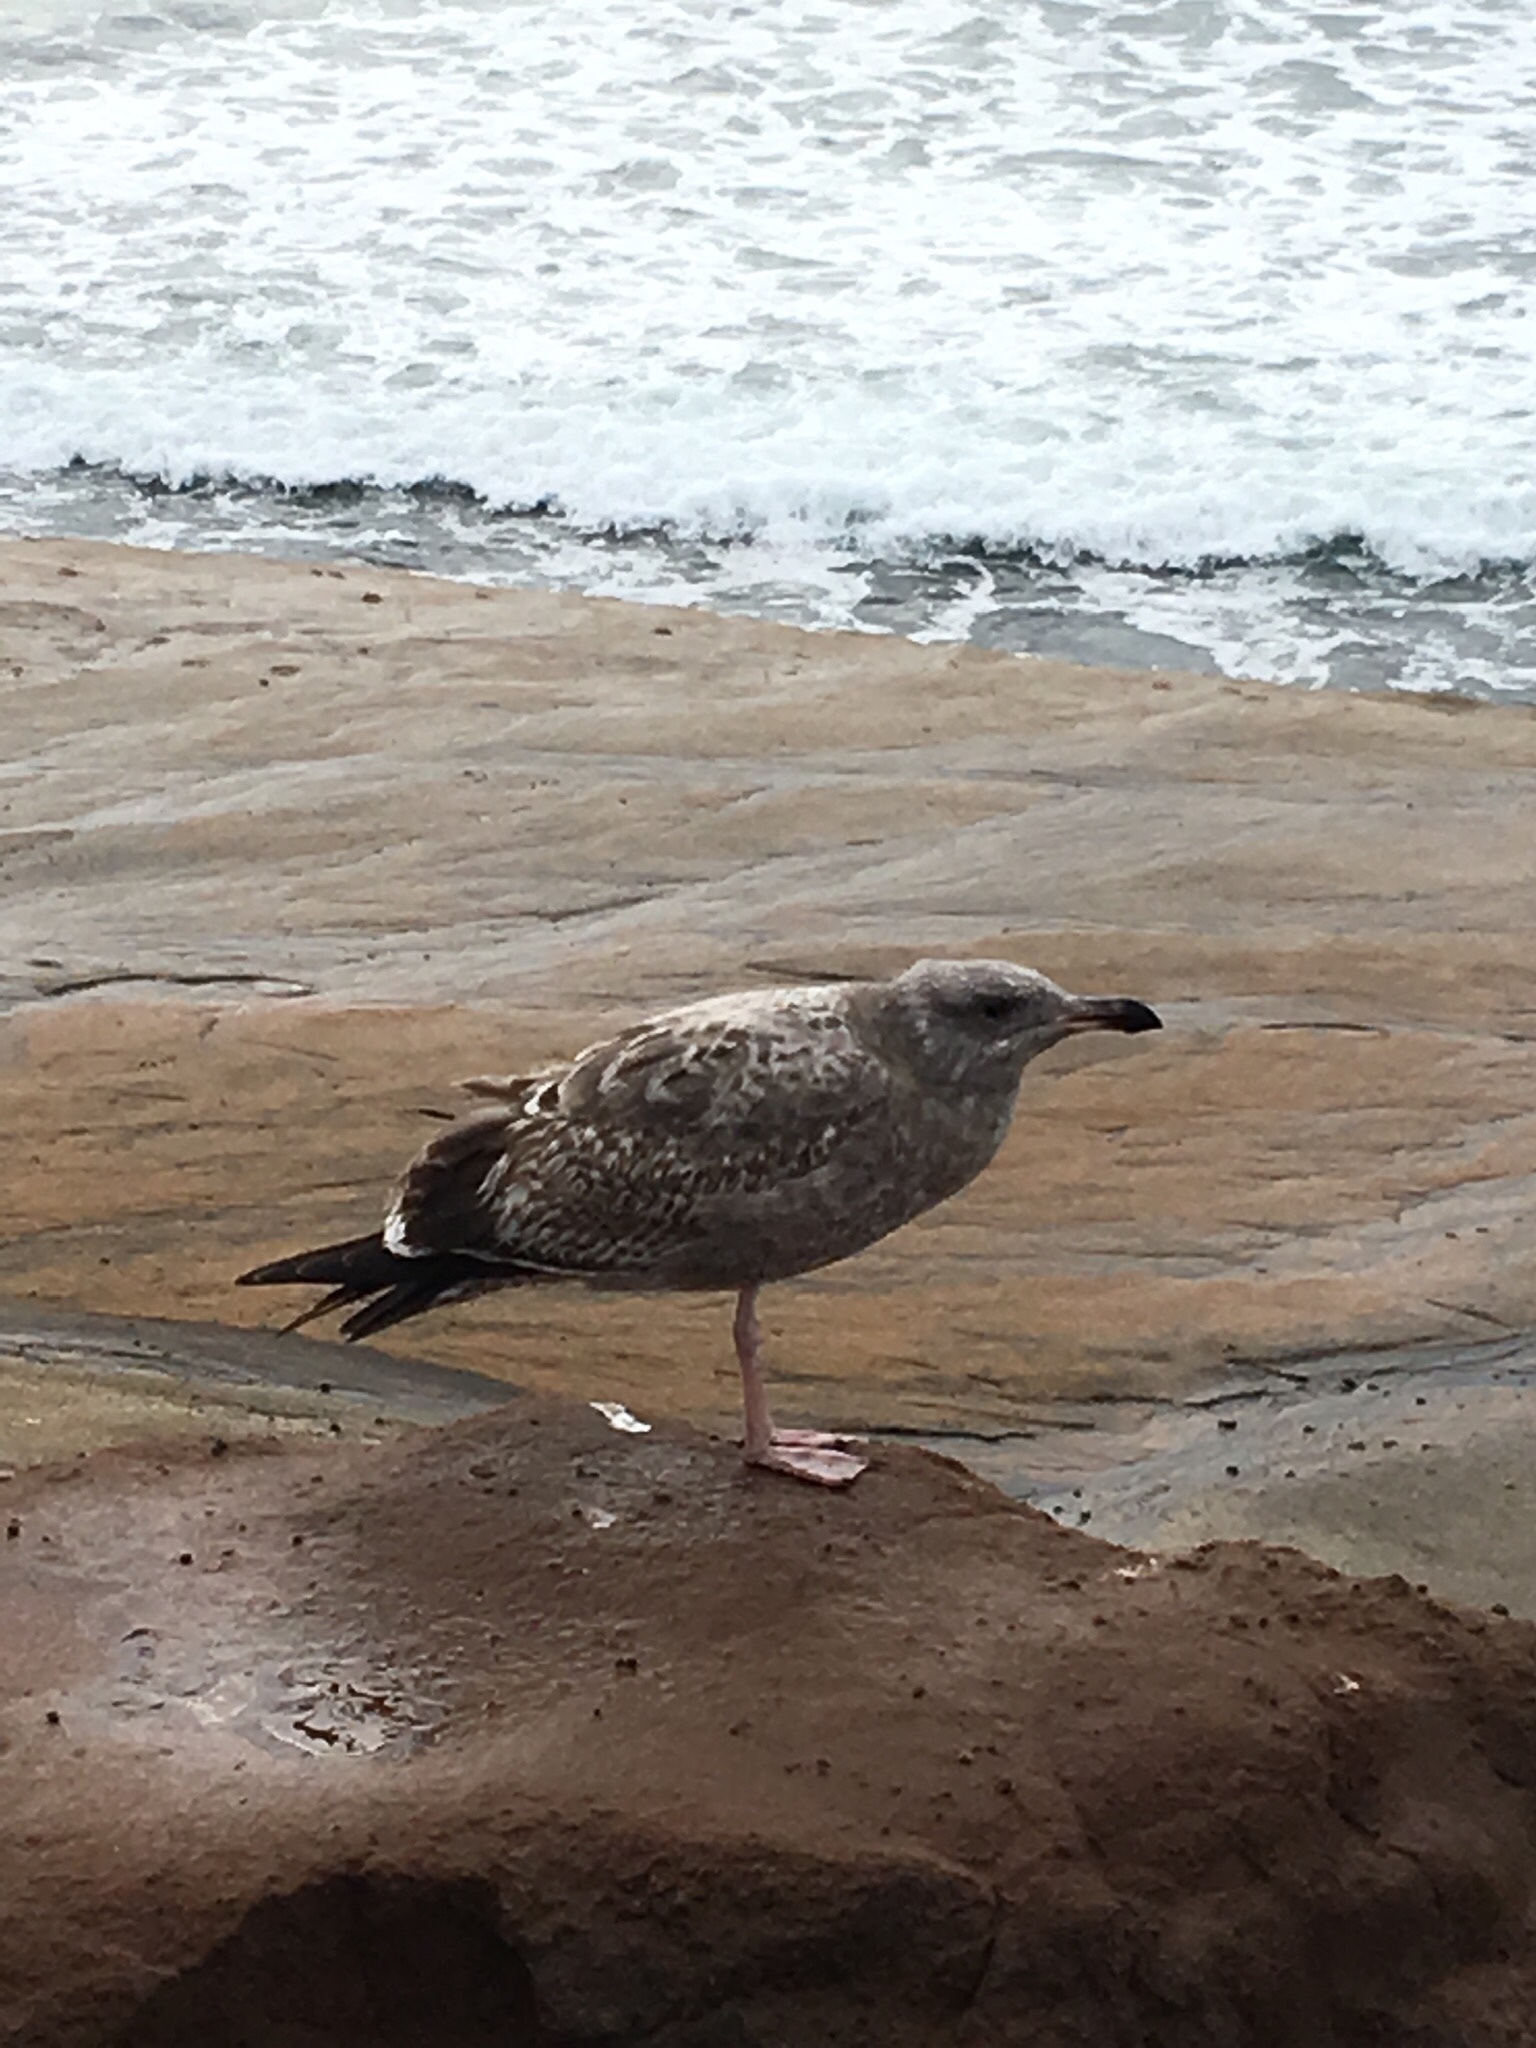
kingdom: Animalia
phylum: Chordata
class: Aves
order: Charadriiformes
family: Laridae
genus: Larus
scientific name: Larus occidentalis
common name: Western gull
